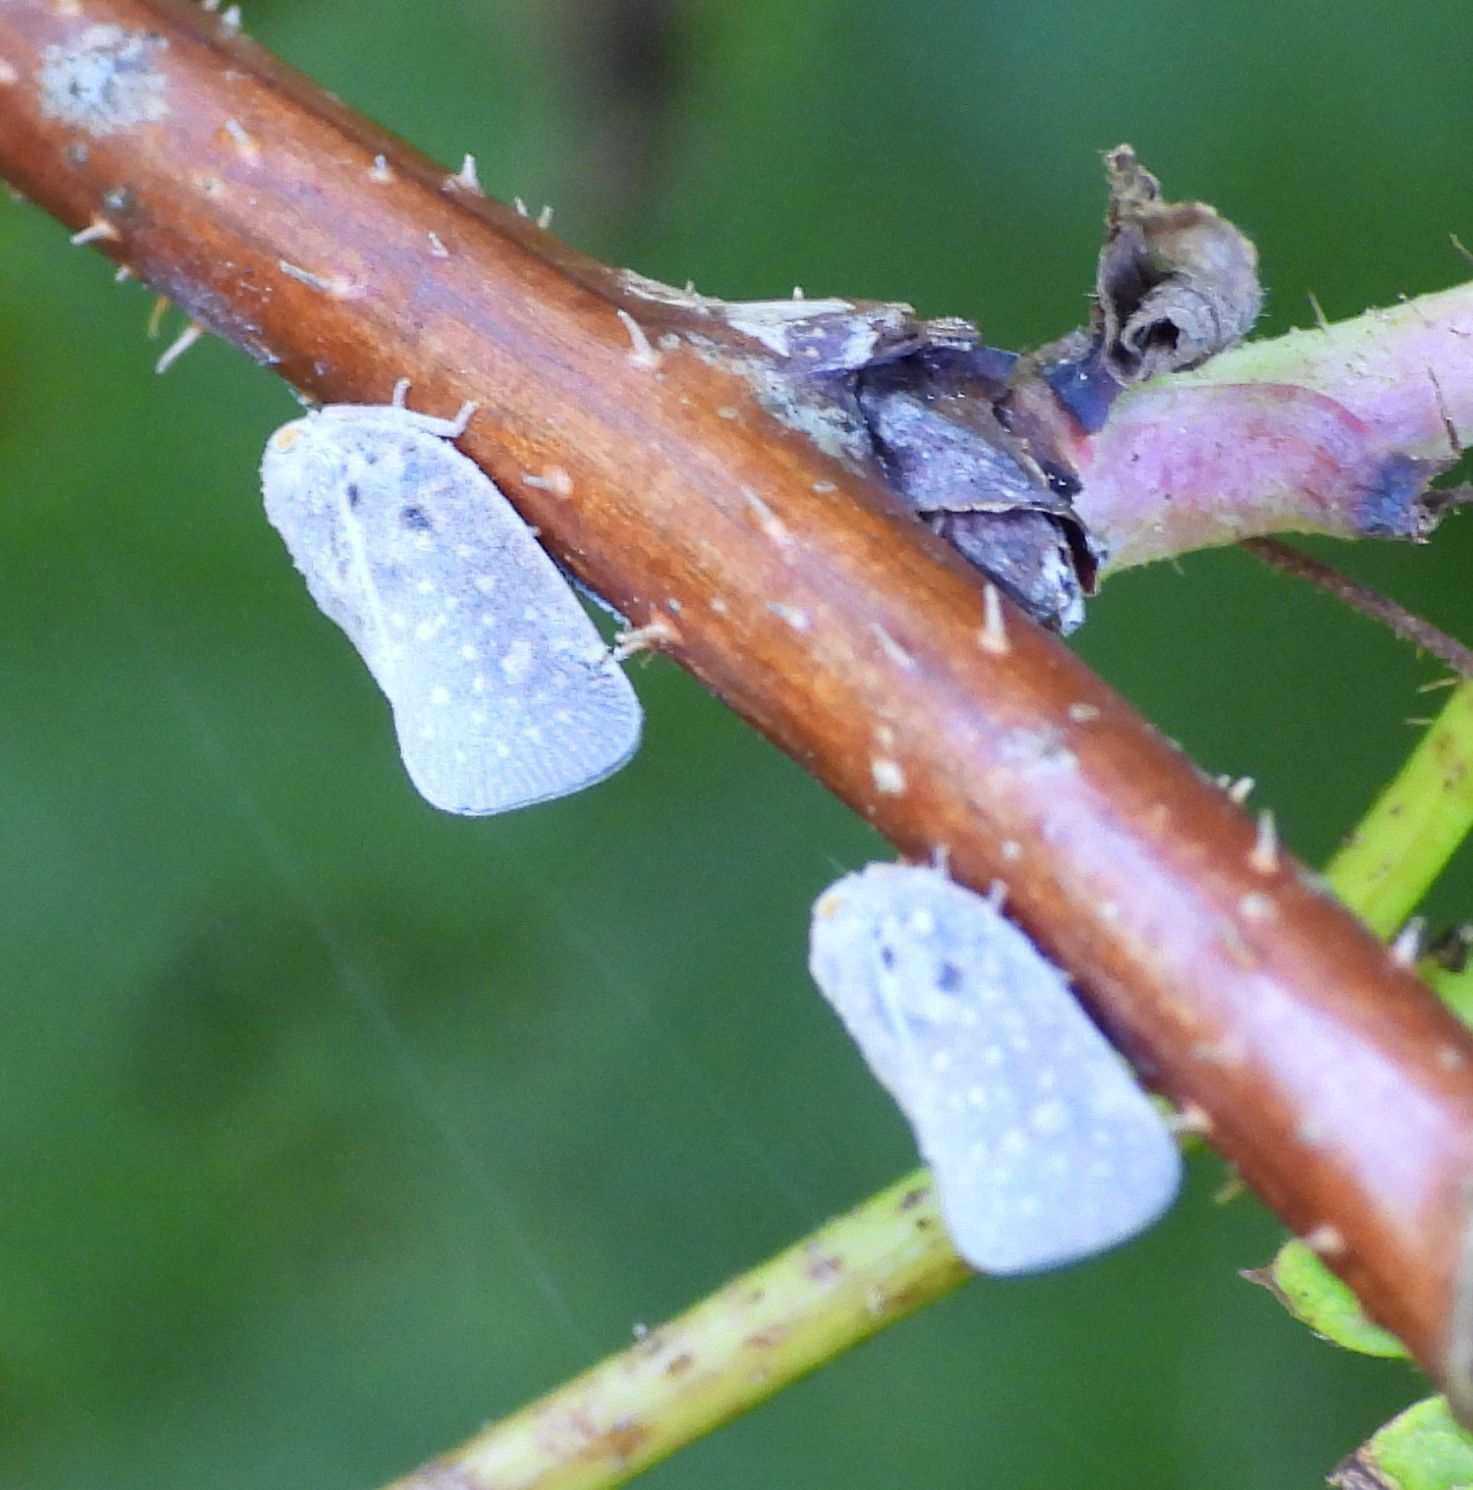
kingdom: Animalia
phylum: Arthropoda
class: Insecta
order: Hemiptera
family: Flatidae
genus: Metcalfa
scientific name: Metcalfa pruinosa
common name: Citrus flatid planthopper
